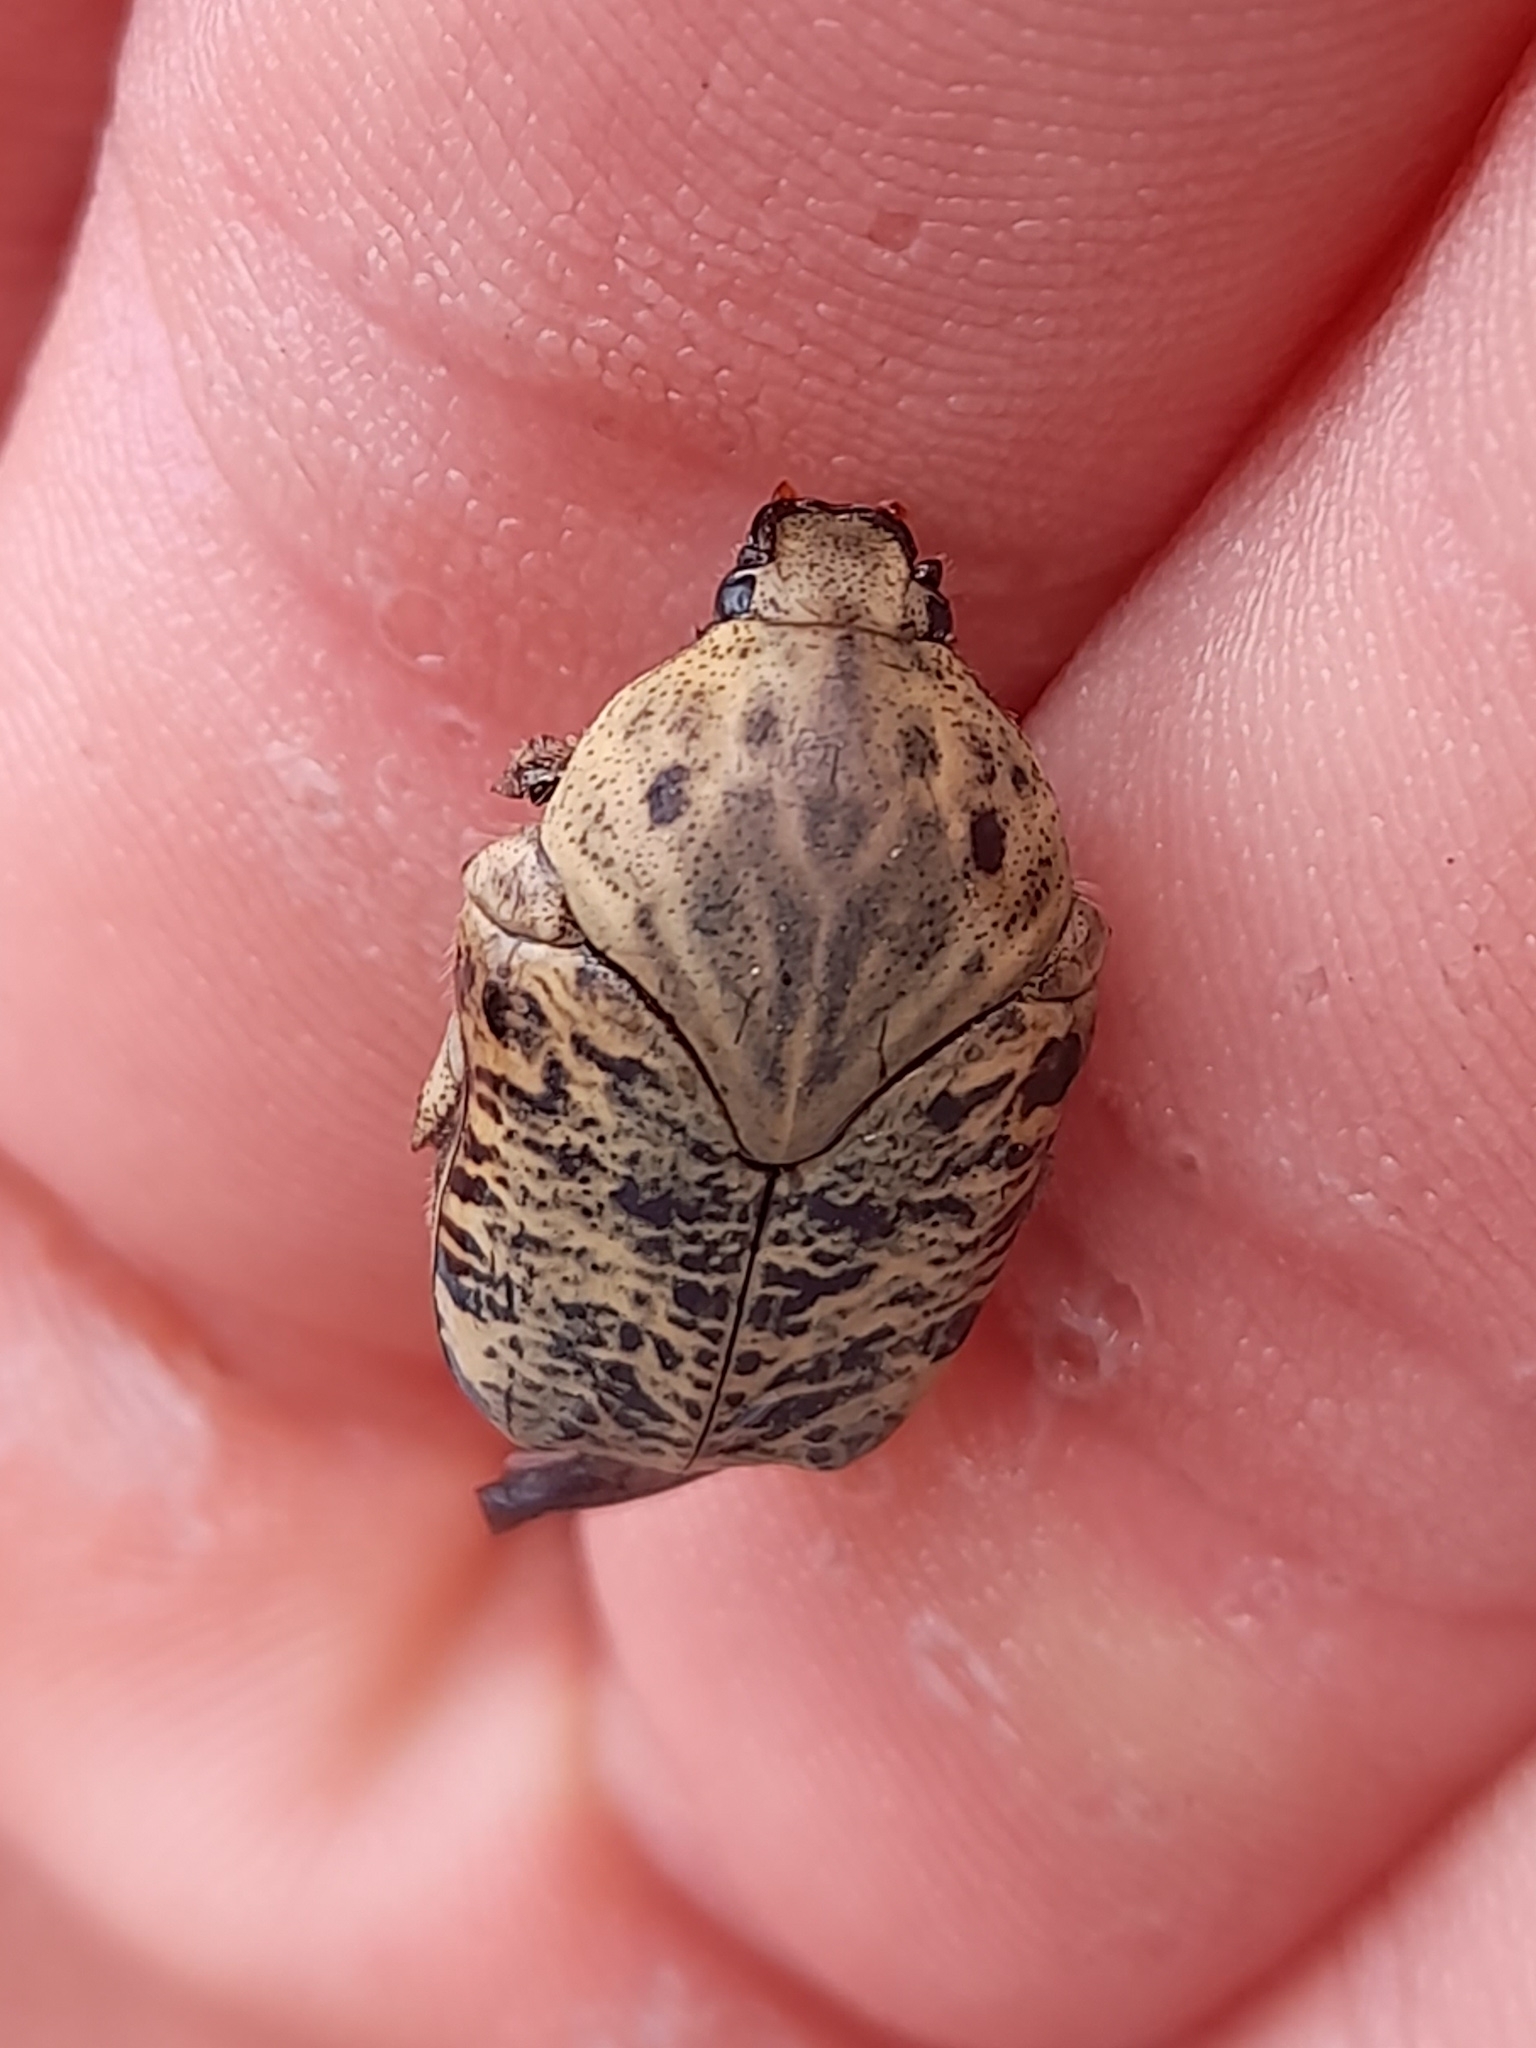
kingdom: Animalia
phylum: Arthropoda
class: Insecta
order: Coleoptera
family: Scarabaeidae
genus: Gymnetis
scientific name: Gymnetis lanius
